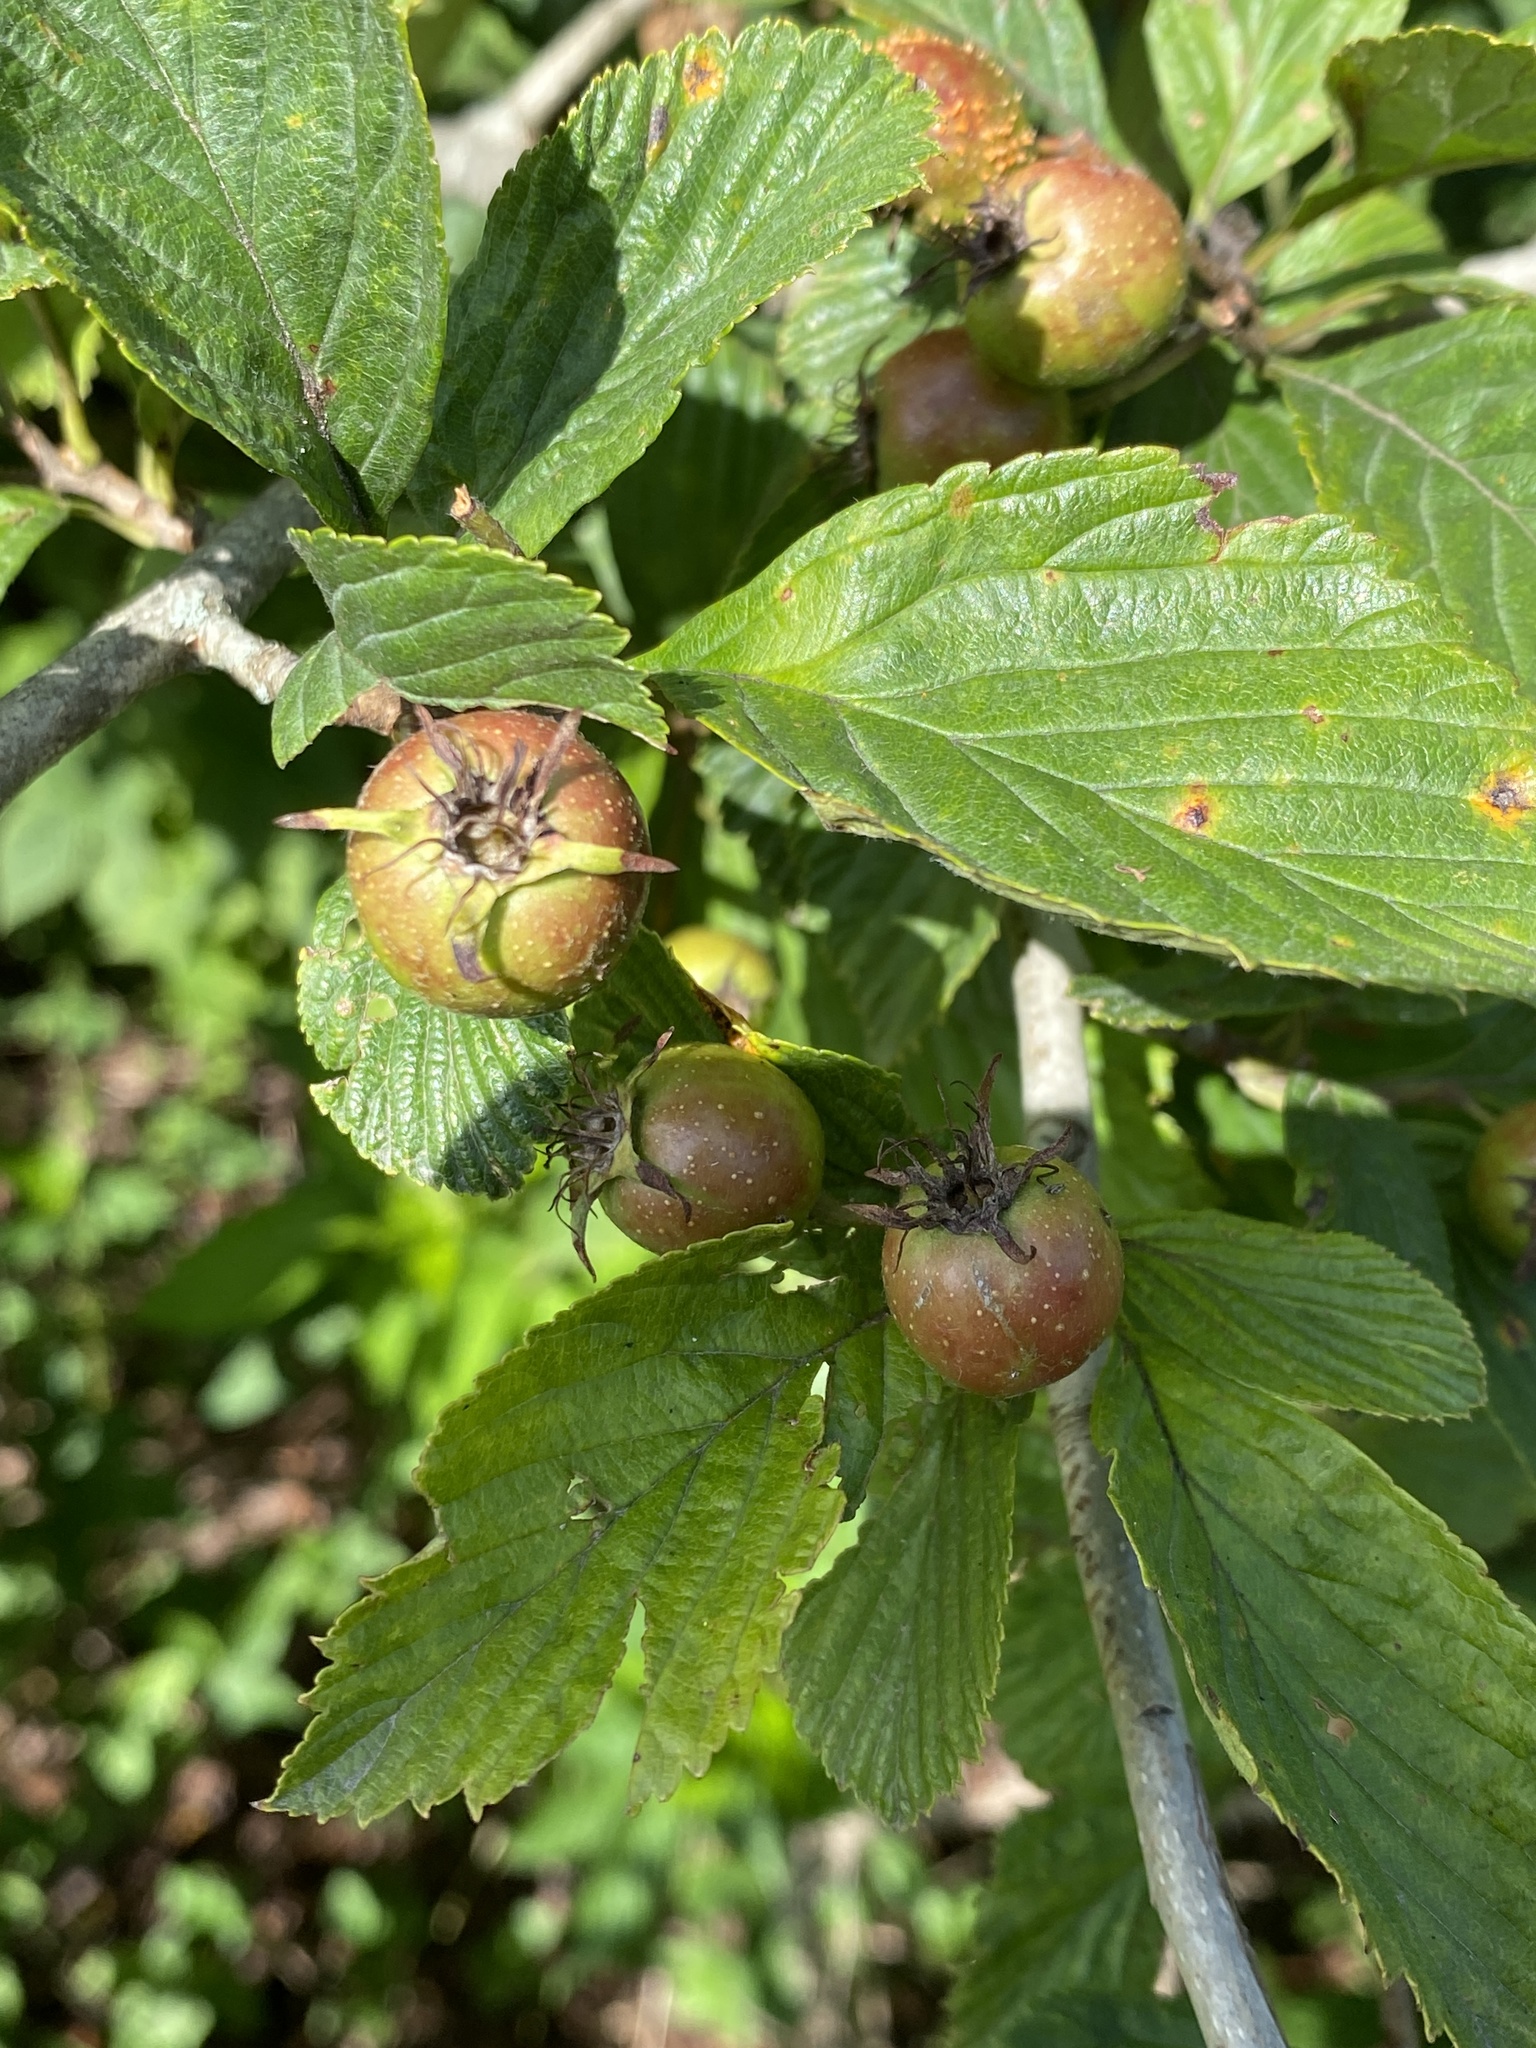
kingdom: Plantae
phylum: Tracheophyta
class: Magnoliopsida
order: Rosales
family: Rosaceae
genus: Crataegus
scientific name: Crataegus punctata
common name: Dotted hawthorn
